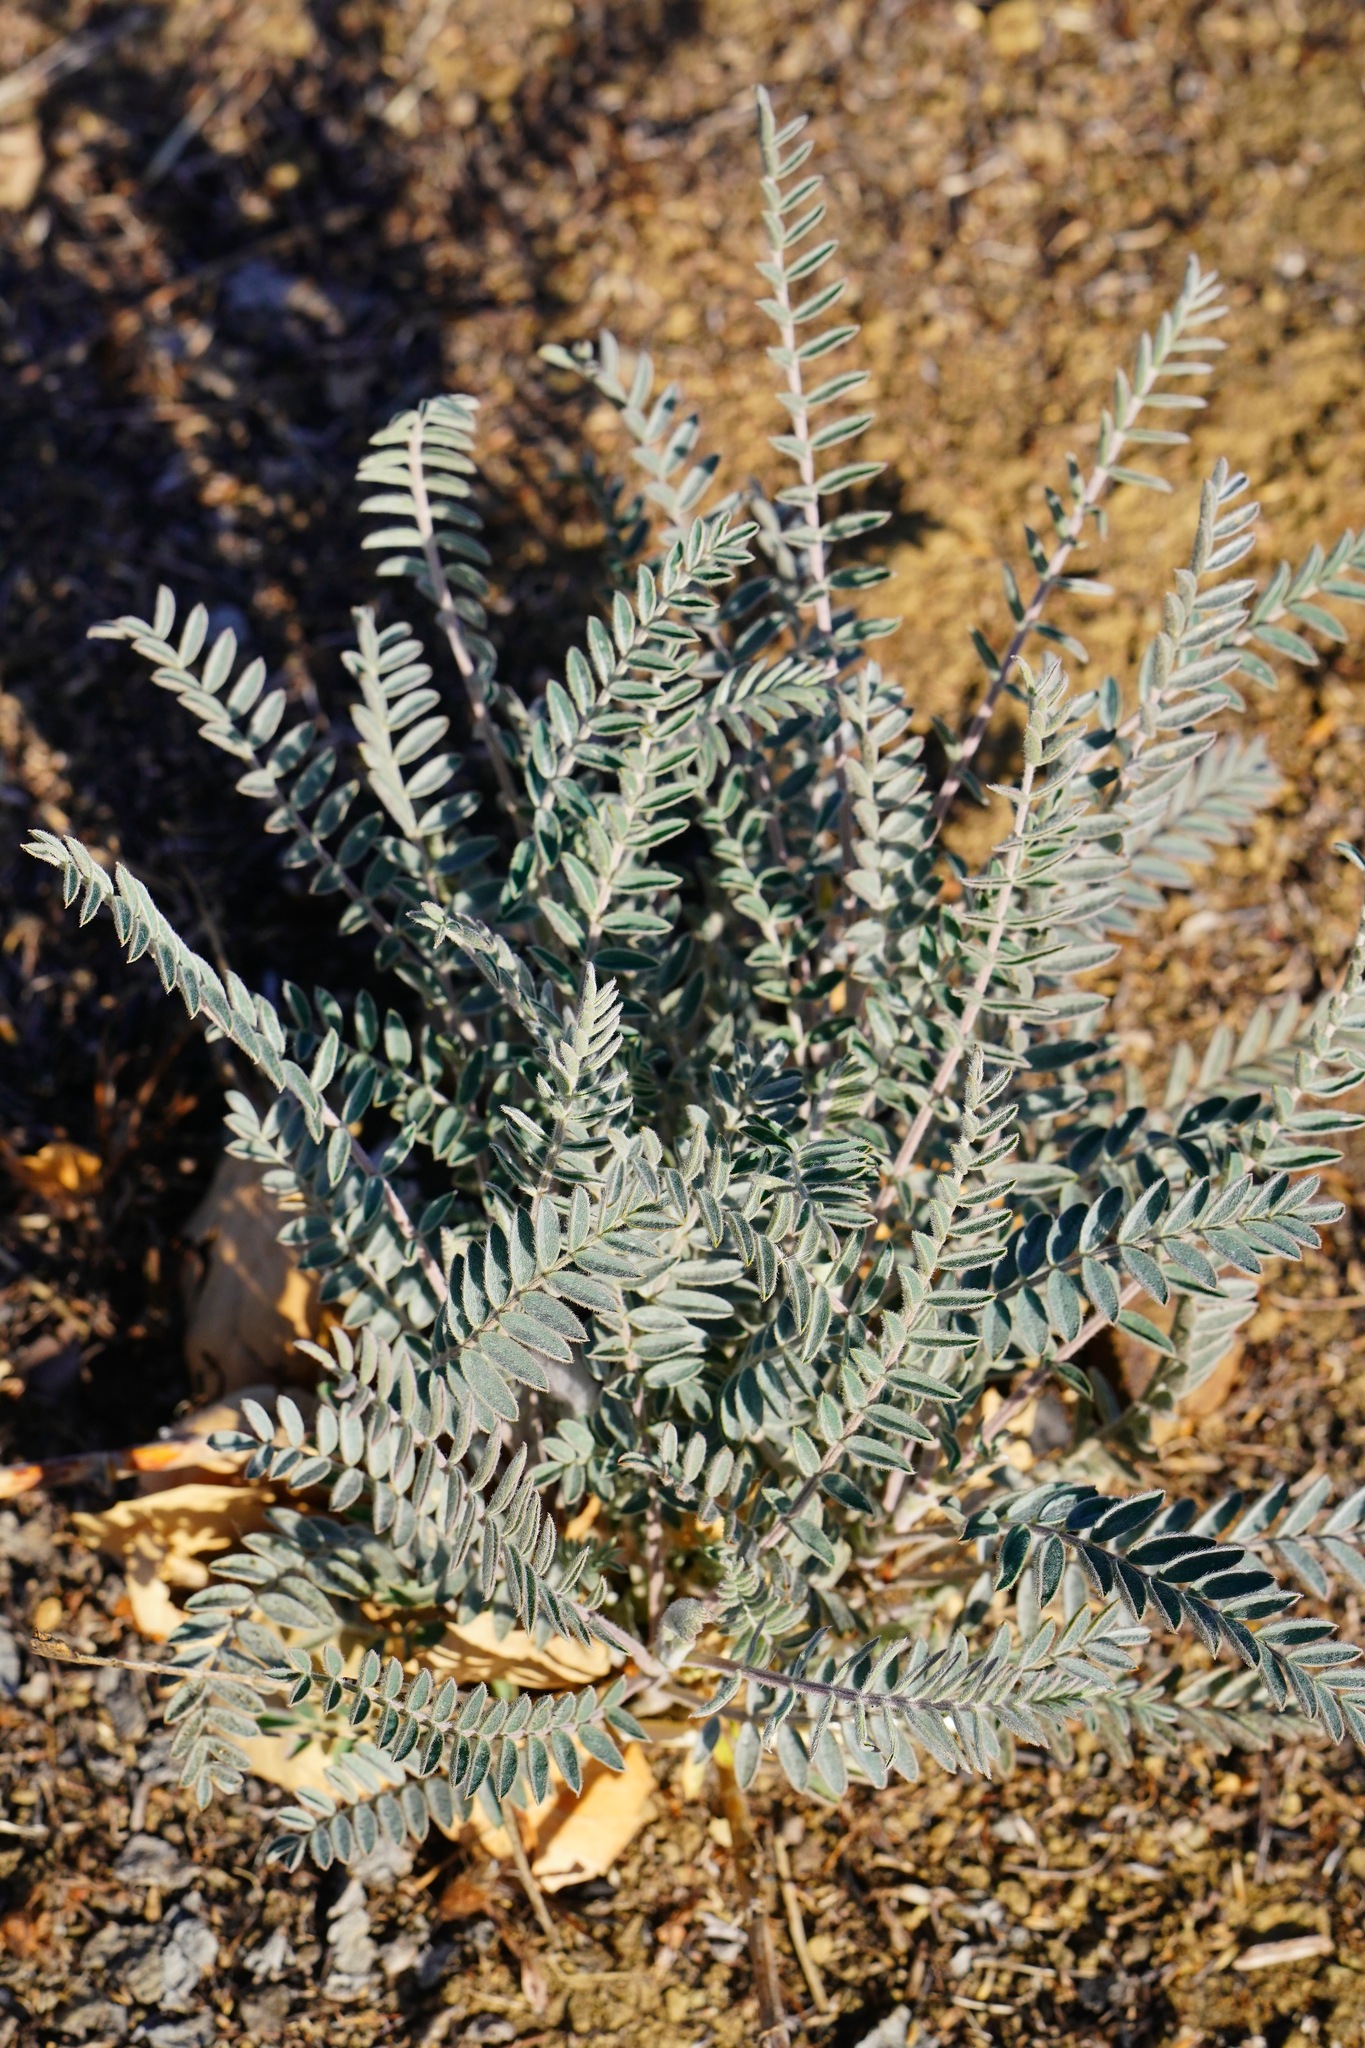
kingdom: Plantae
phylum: Tracheophyta
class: Magnoliopsida
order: Fabales
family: Fabaceae
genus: Astragalus
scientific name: Astragalus asymmetricus
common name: Horse locoweed
